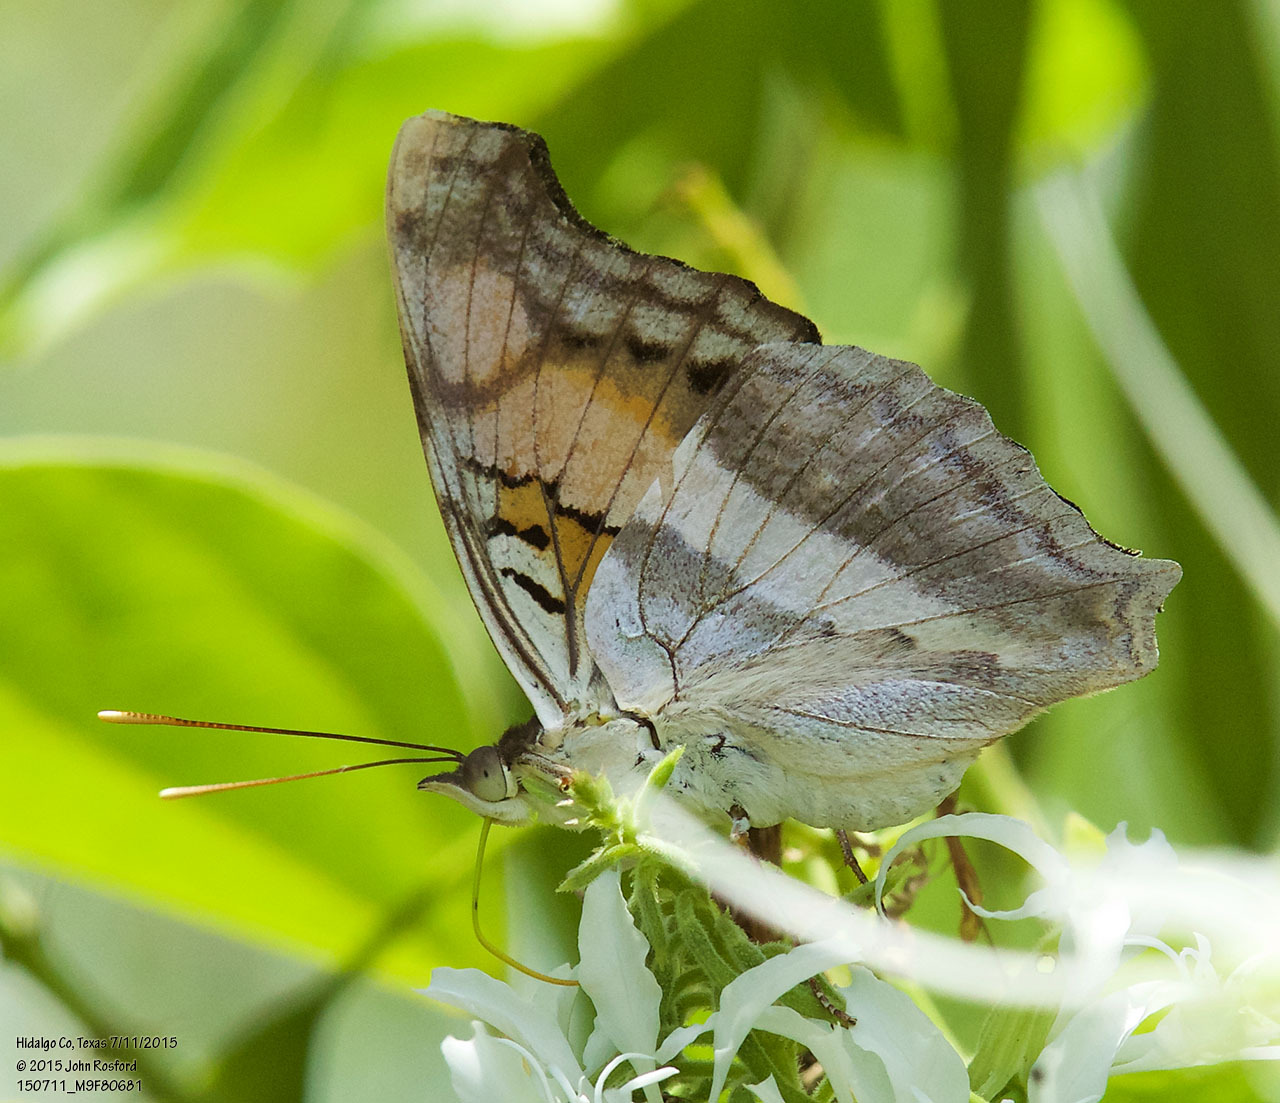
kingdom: Animalia
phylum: Arthropoda
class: Insecta
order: Lepidoptera
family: Nymphalidae
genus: Doxocopa
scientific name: Doxocopa laure
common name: Silver emperor
